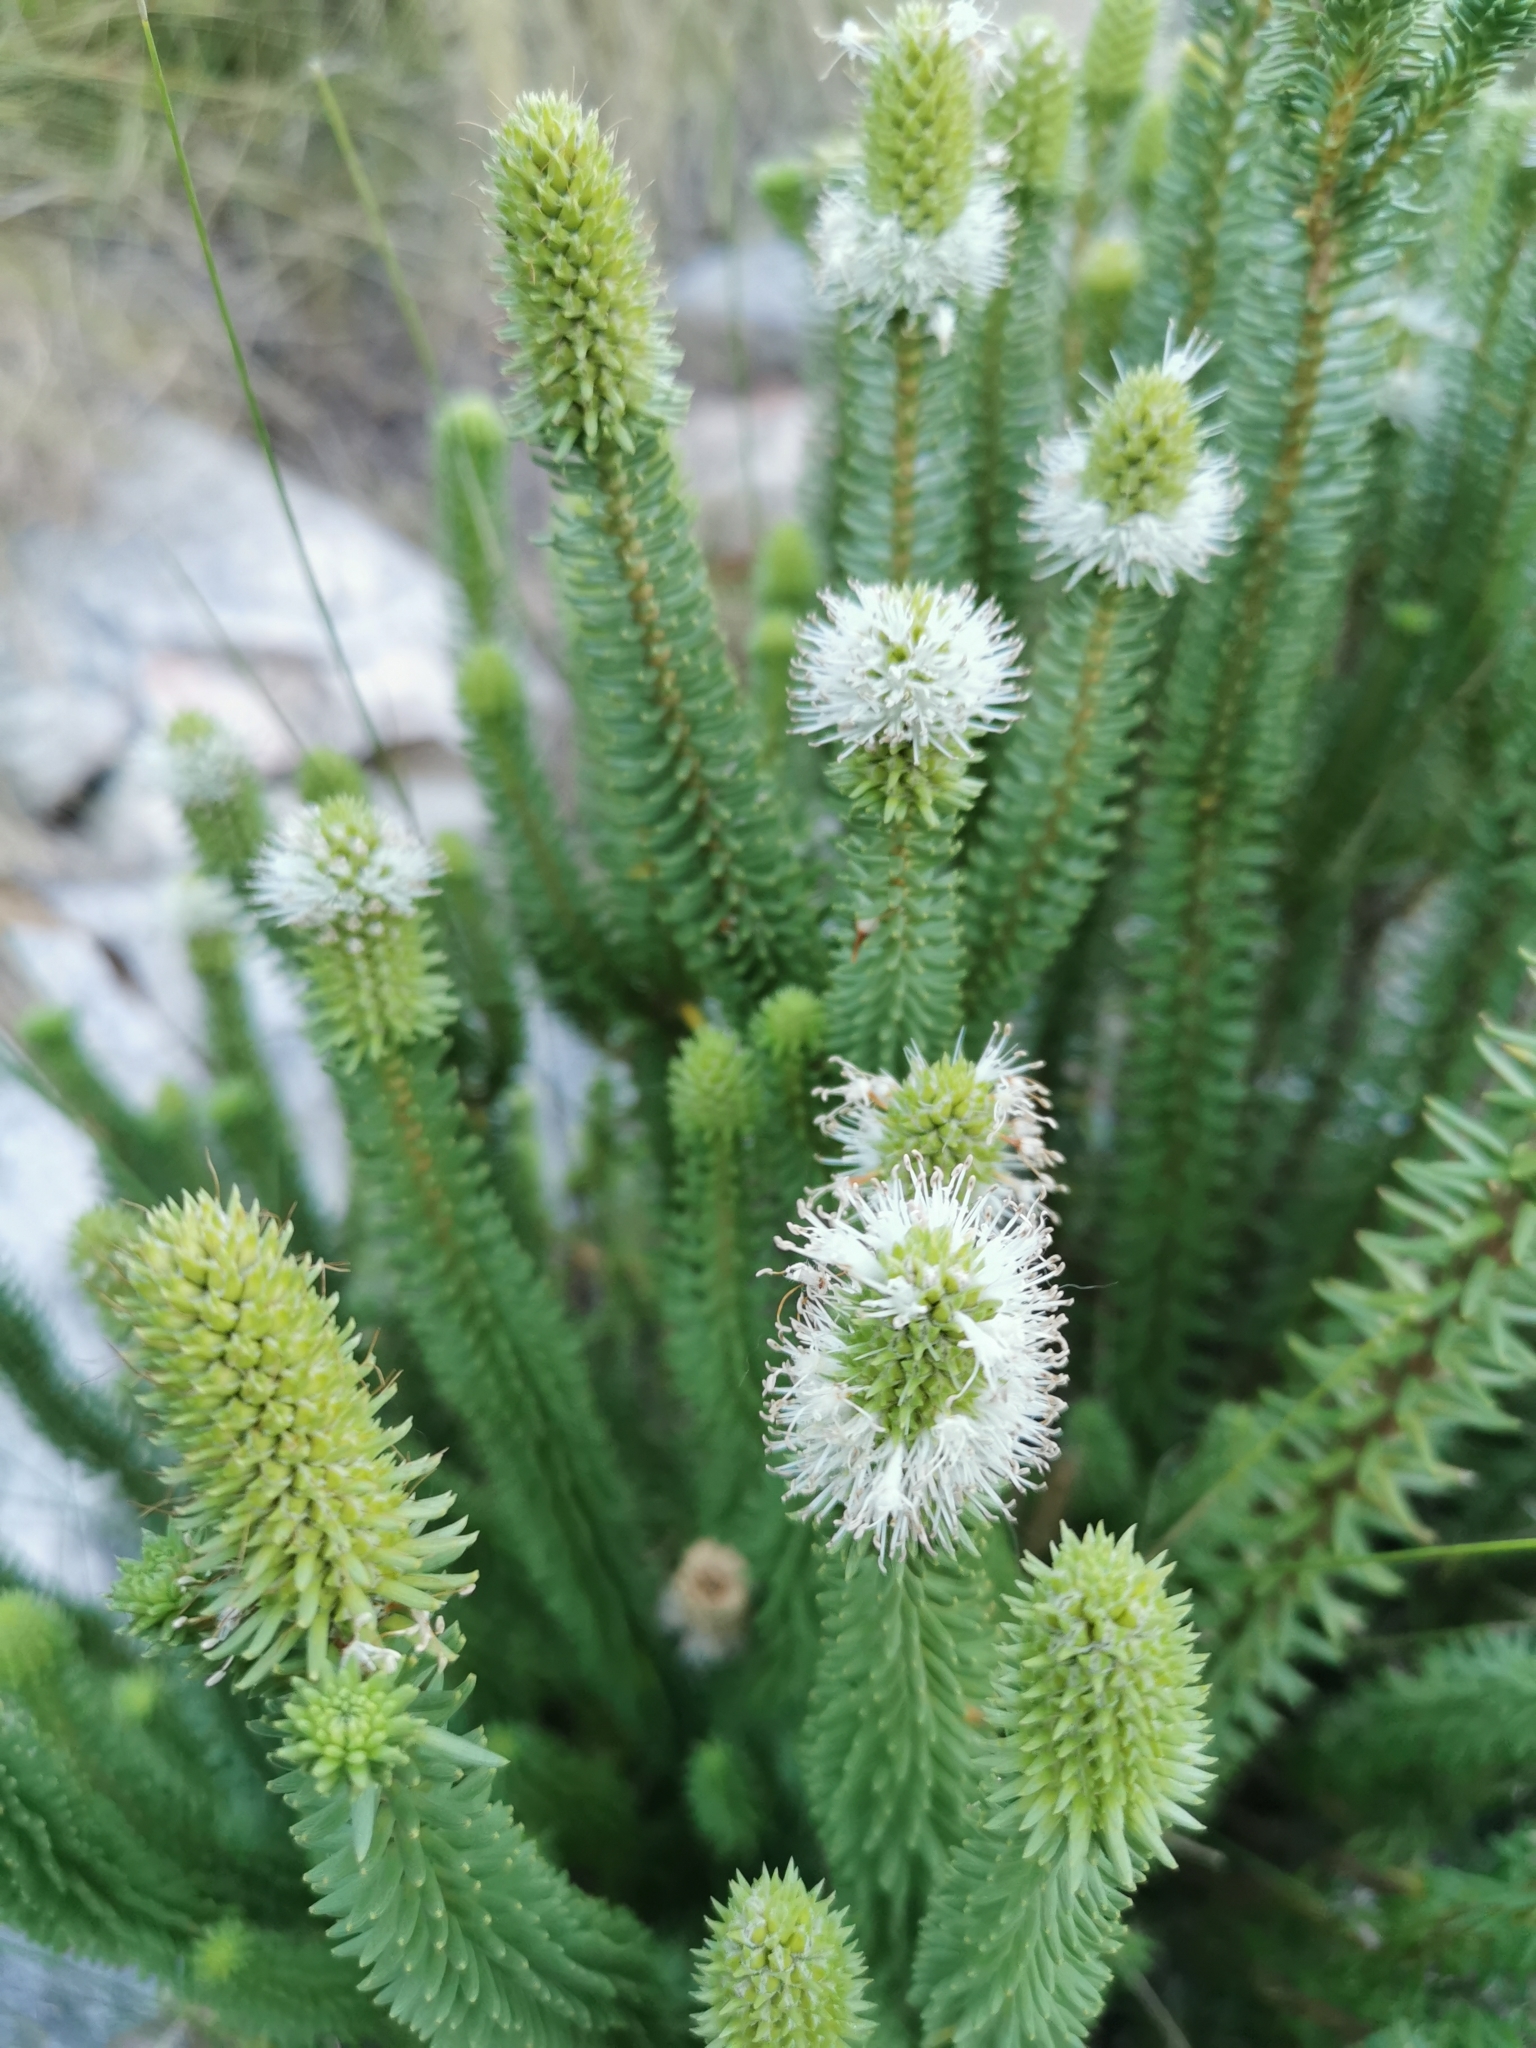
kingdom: Plantae
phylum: Tracheophyta
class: Magnoliopsida
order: Lamiales
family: Stilbaceae
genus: Stilbe
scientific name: Stilbe vestita
